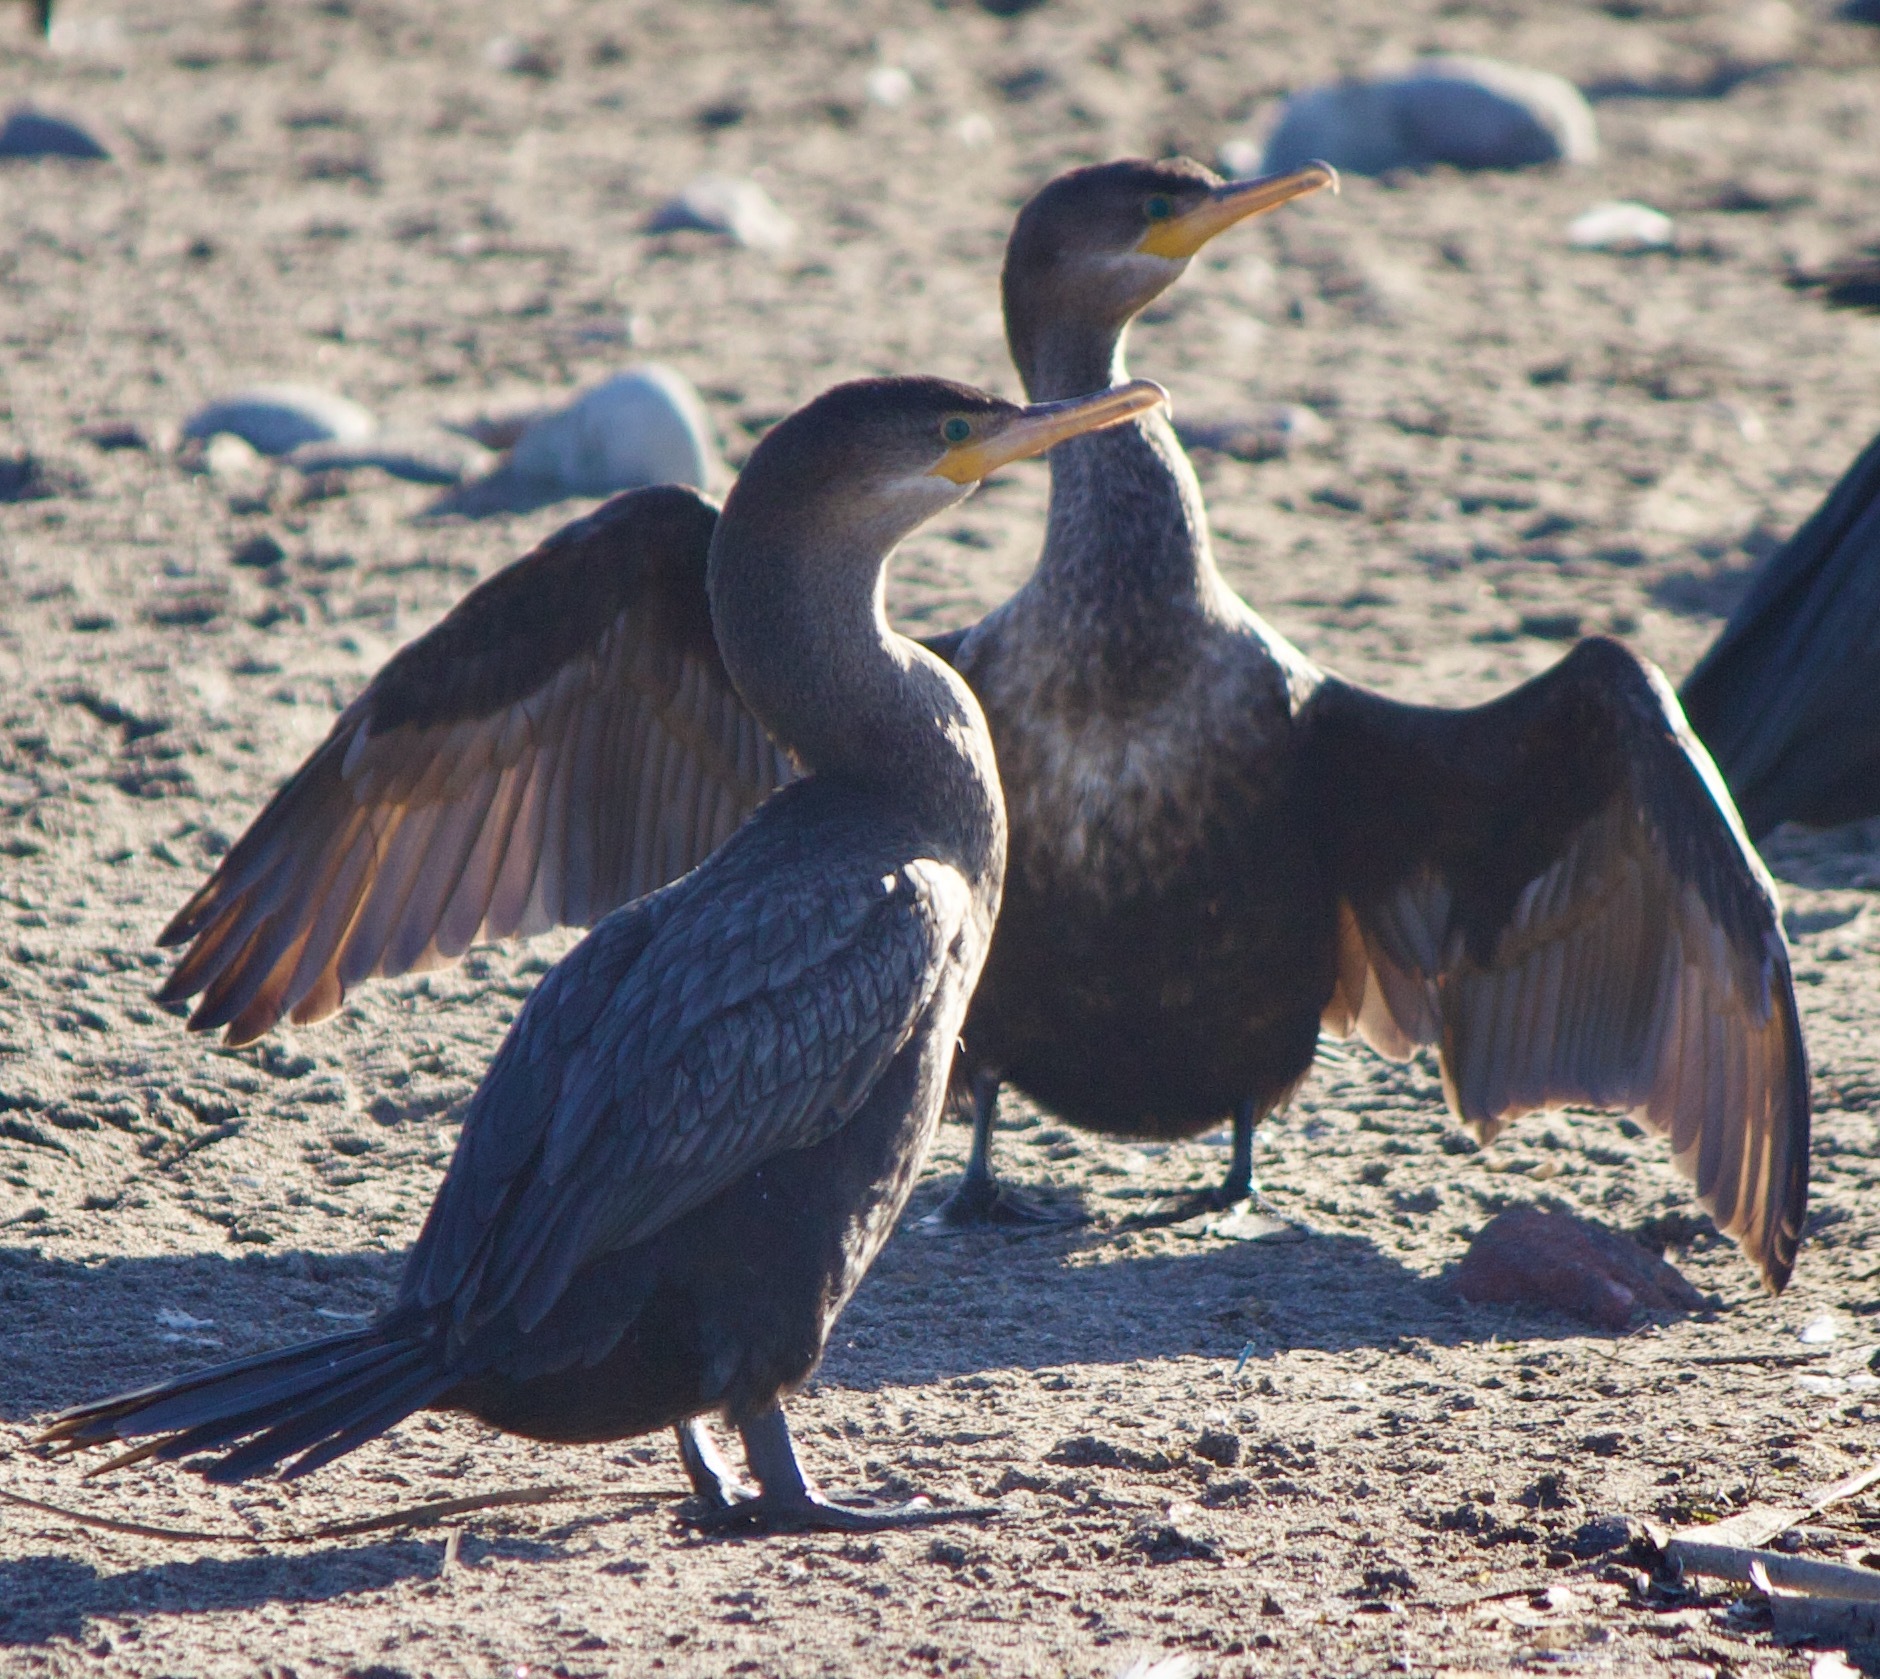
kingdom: Animalia
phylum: Chordata
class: Aves
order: Suliformes
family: Phalacrocoracidae
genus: Phalacrocorax
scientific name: Phalacrocorax brasilianus
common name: Neotropic cormorant
